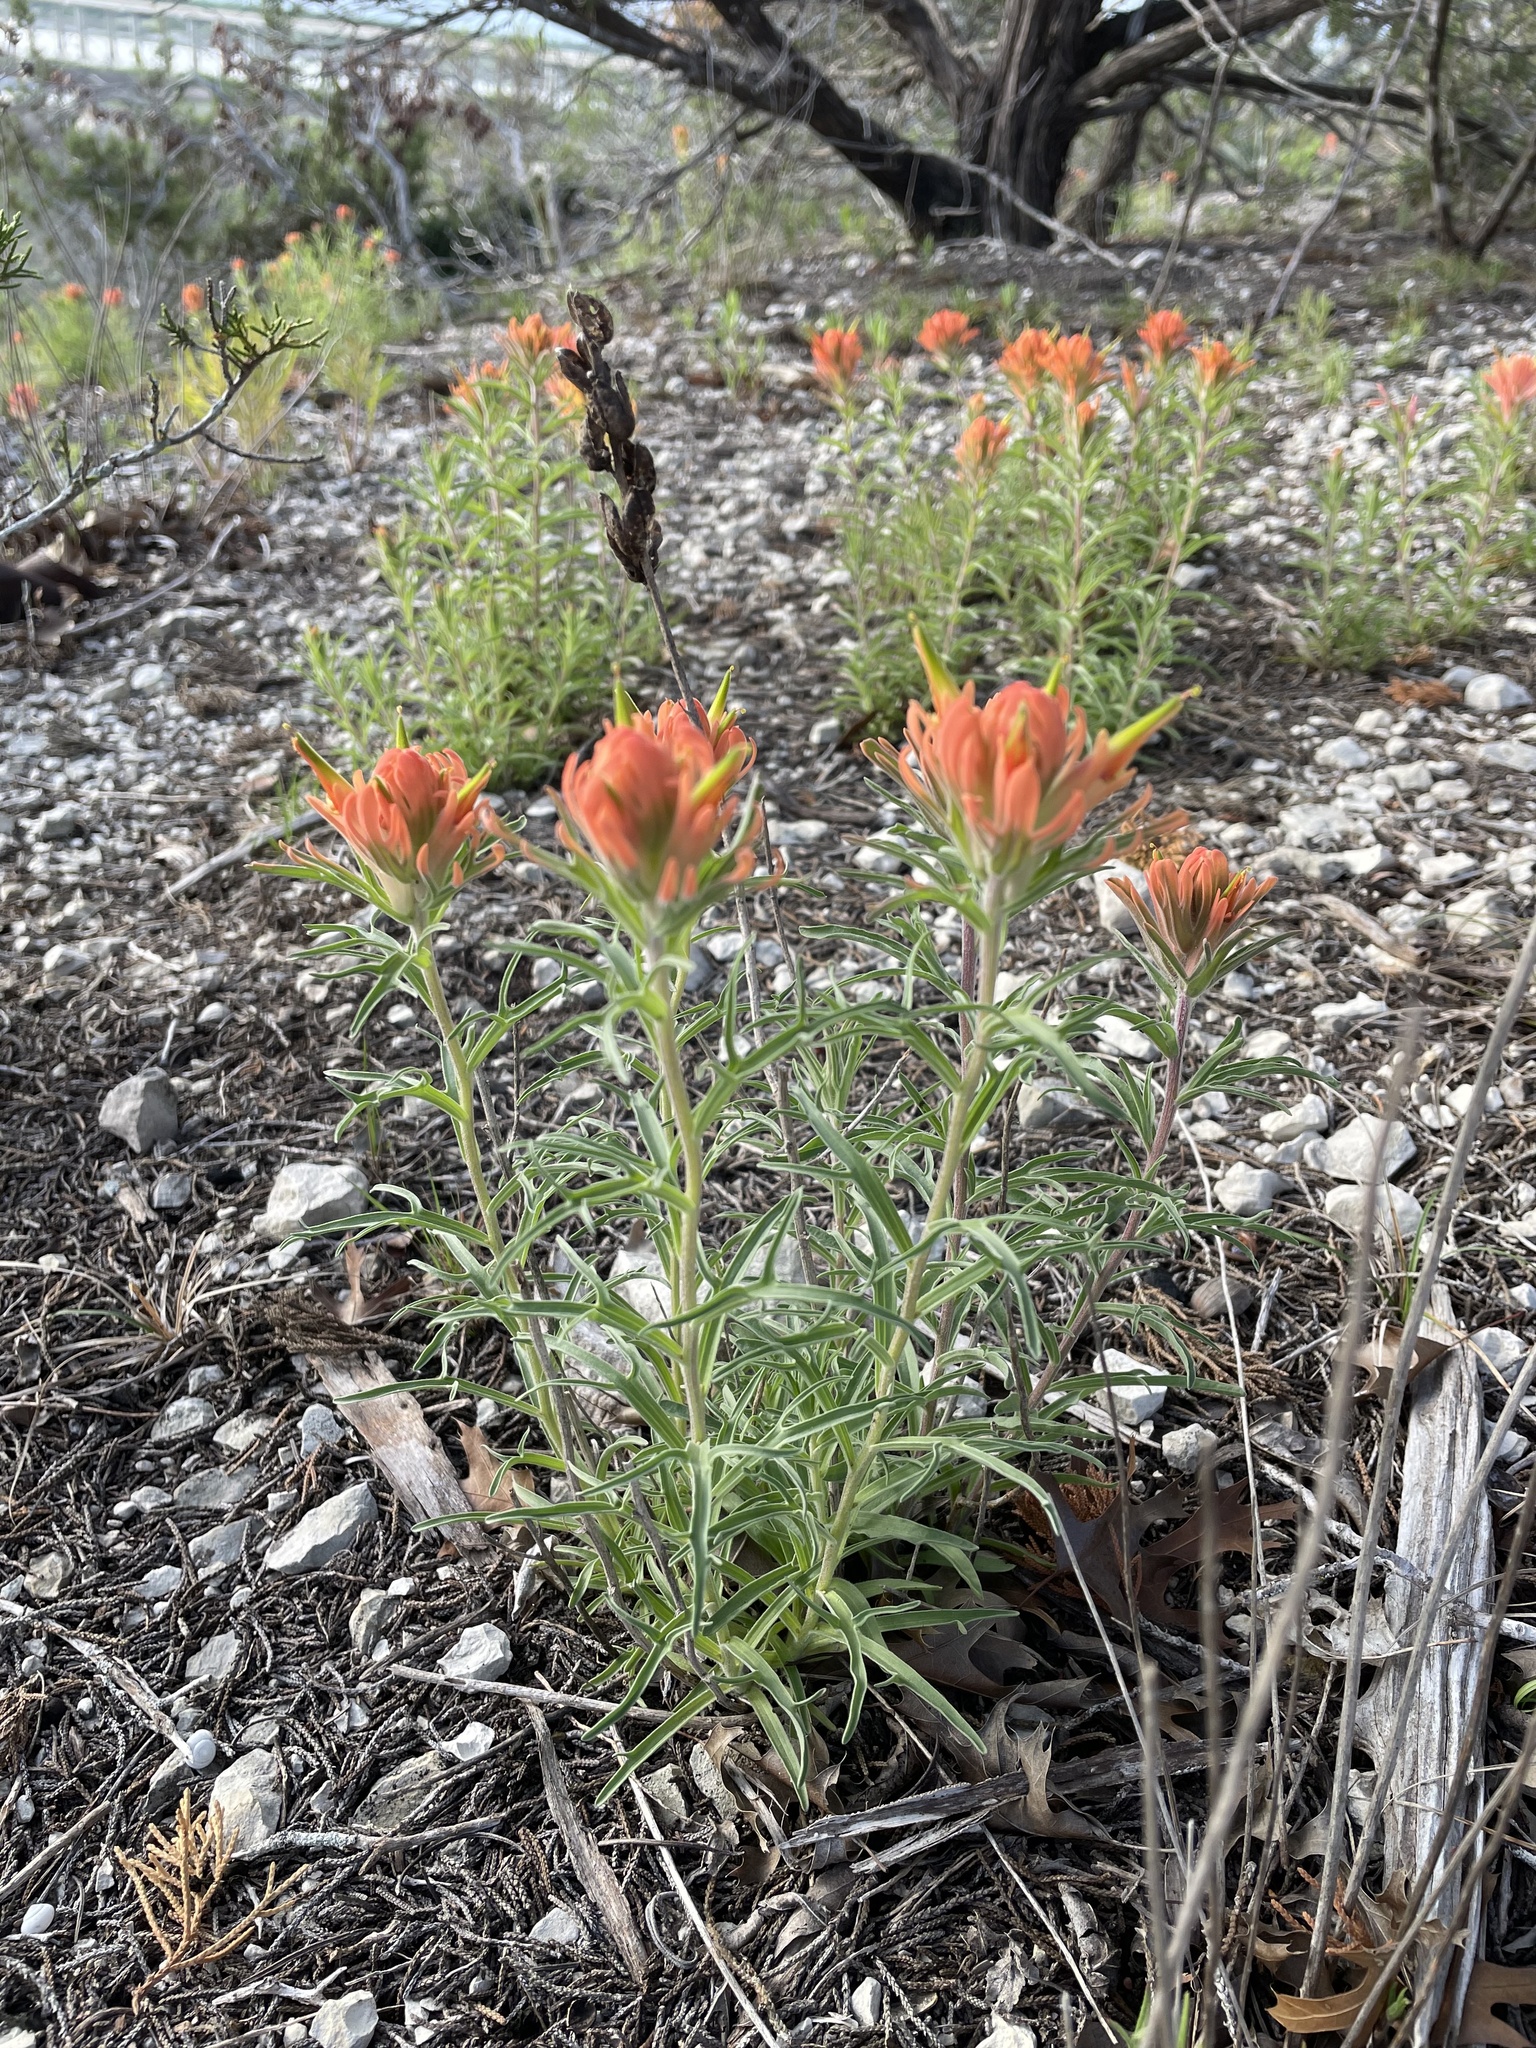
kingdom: Plantae
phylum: Tracheophyta
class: Magnoliopsida
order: Lamiales
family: Orobanchaceae
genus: Castilleja
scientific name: Castilleja lindheimeri
